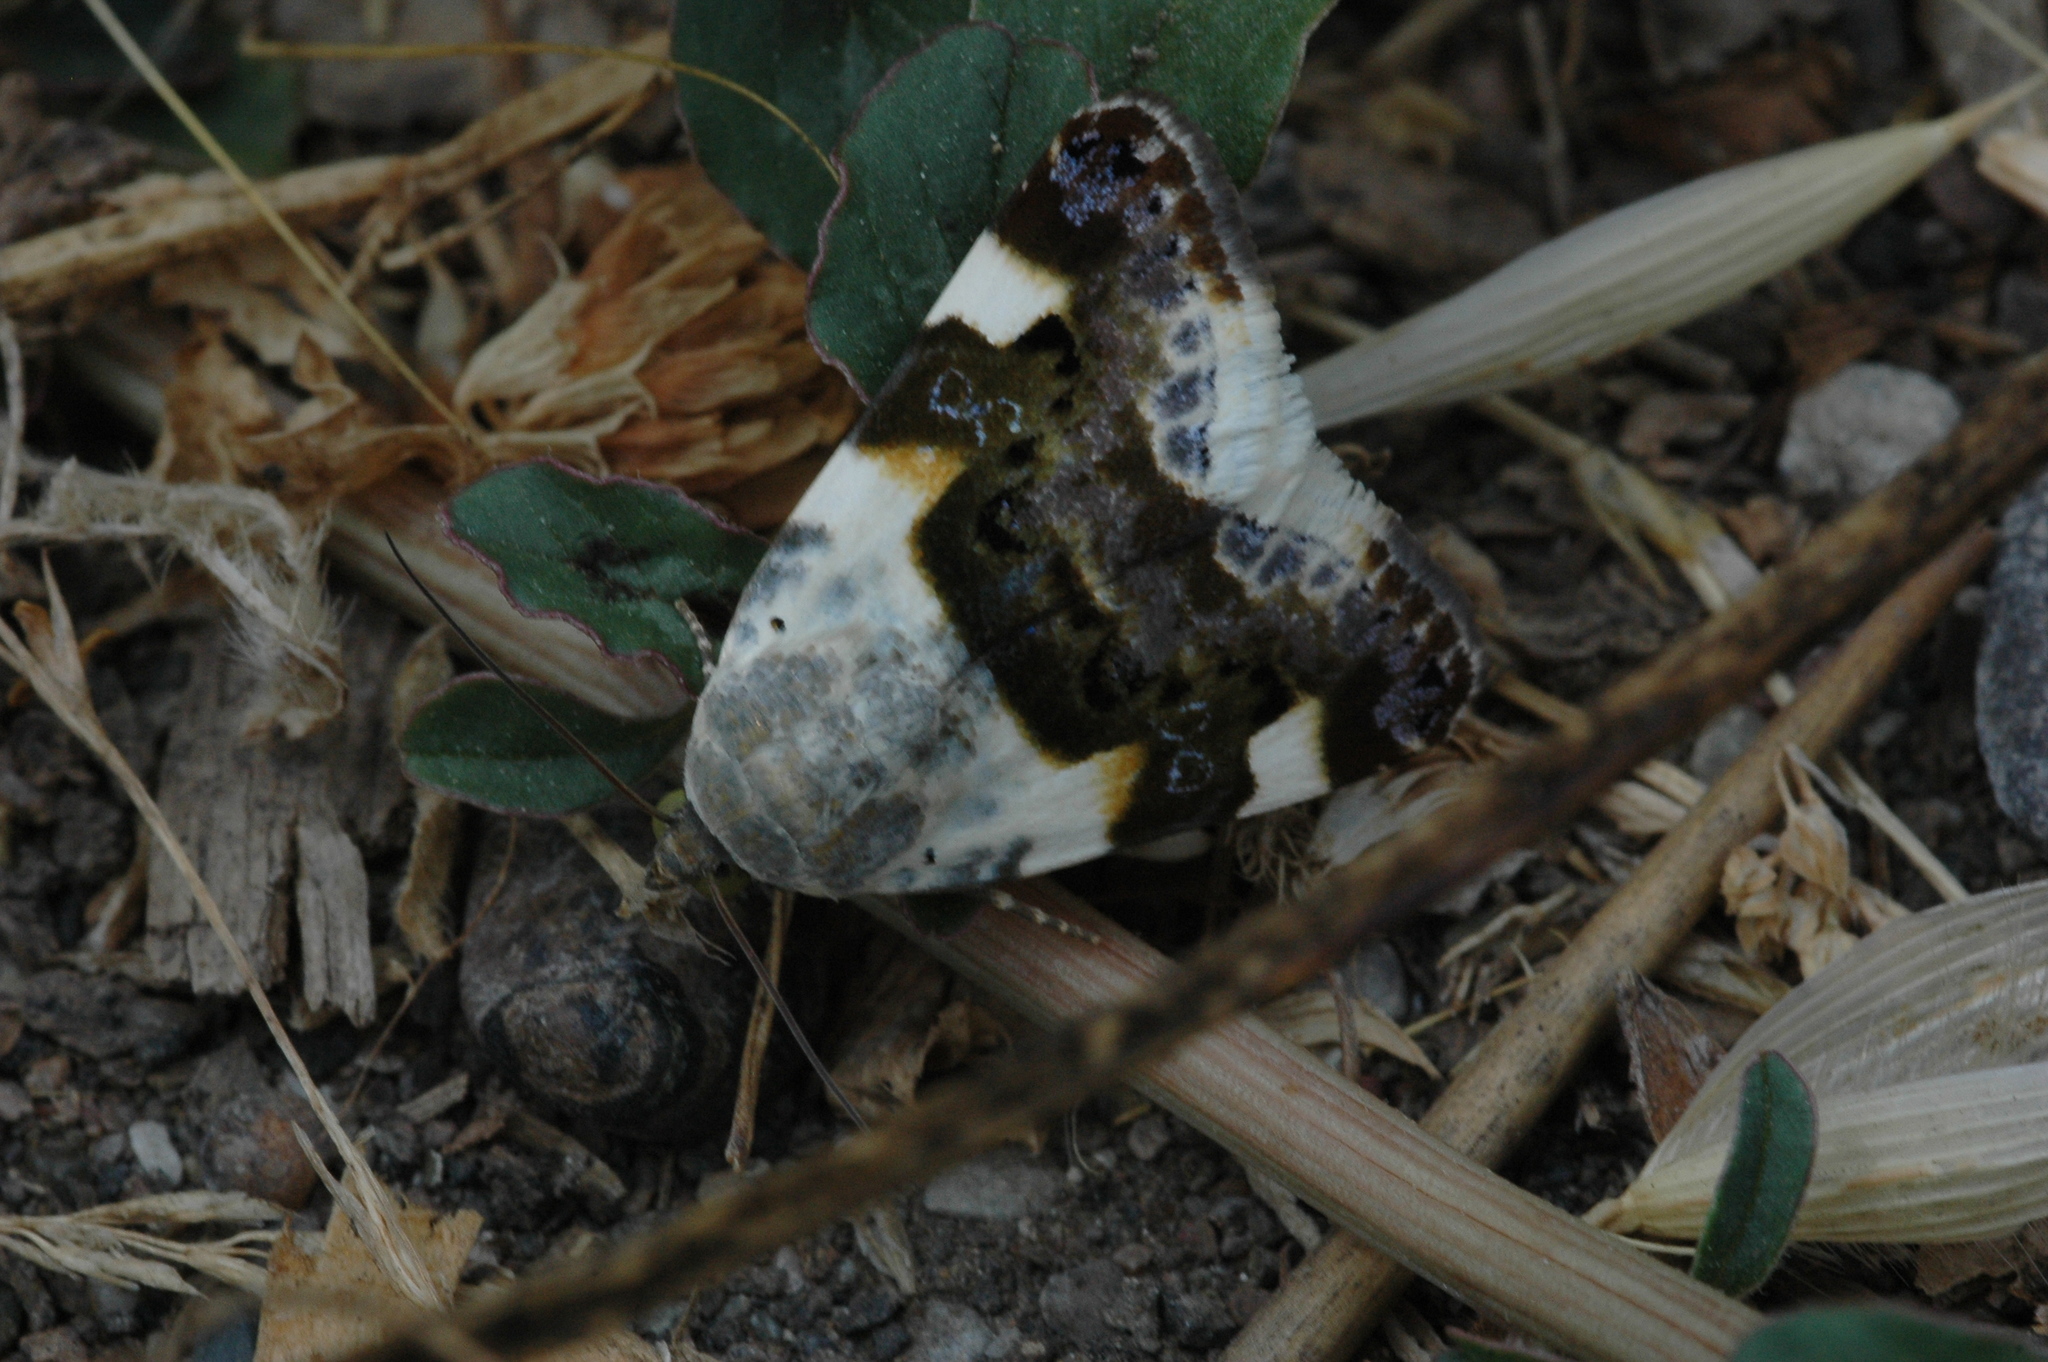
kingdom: Animalia
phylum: Arthropoda
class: Insecta
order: Lepidoptera
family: Noctuidae
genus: Acontia
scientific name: Acontia lucida
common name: Pale shoulder
